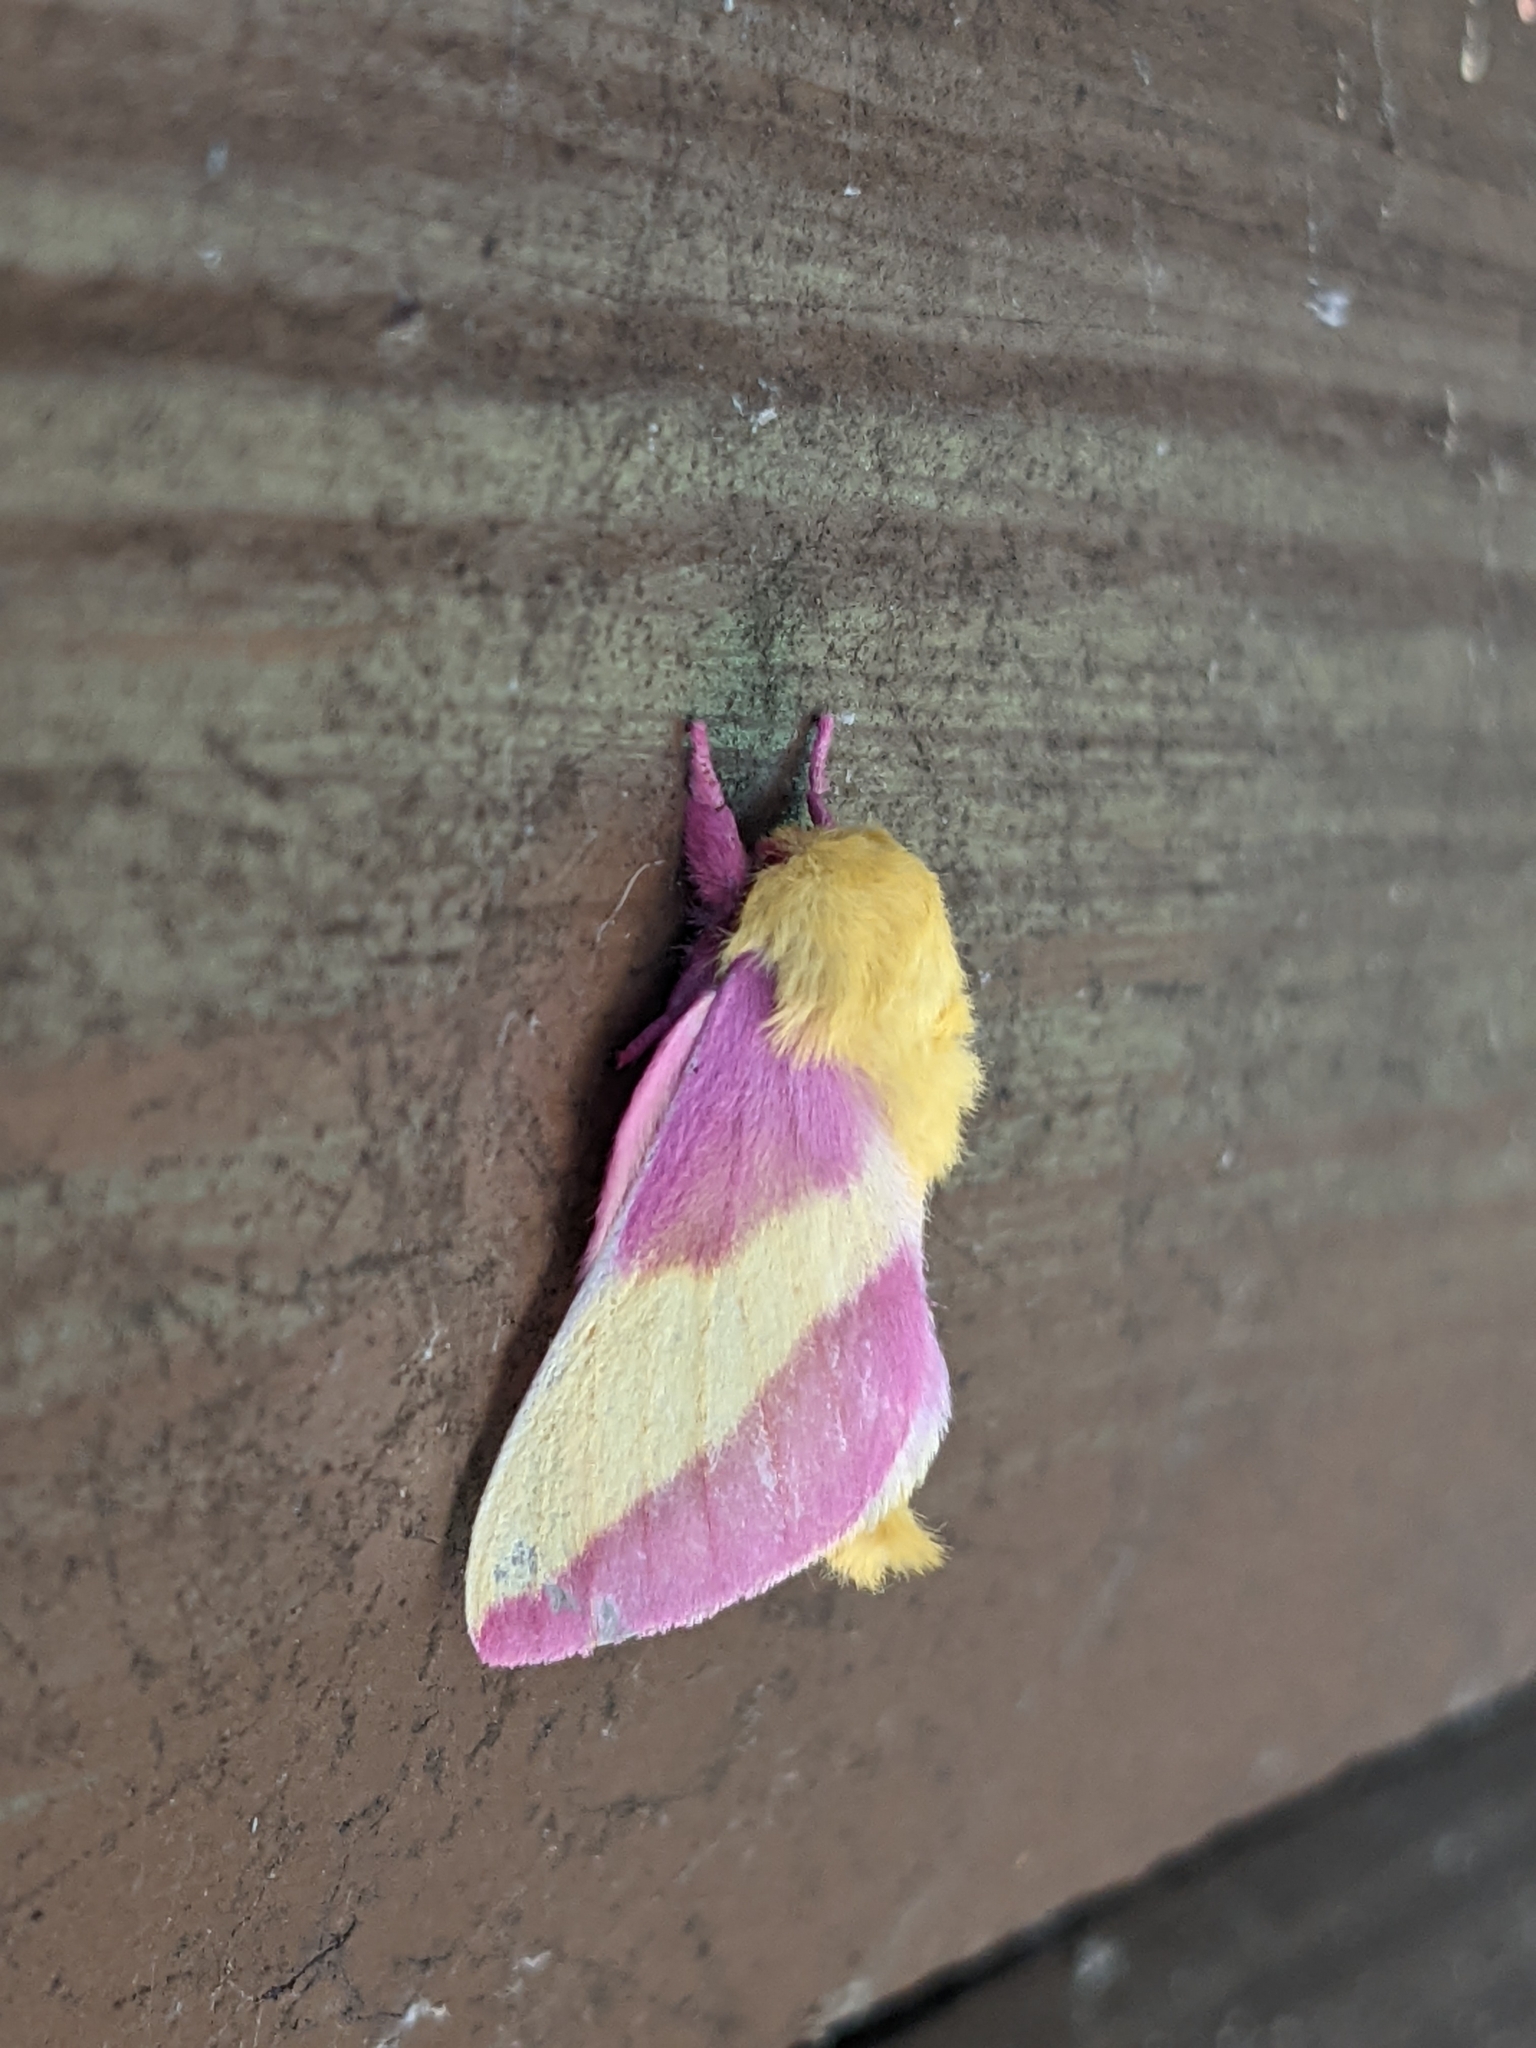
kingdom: Animalia
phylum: Arthropoda
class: Insecta
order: Lepidoptera
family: Saturniidae
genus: Dryocampa
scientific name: Dryocampa rubicunda
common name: Rosy maple moth
